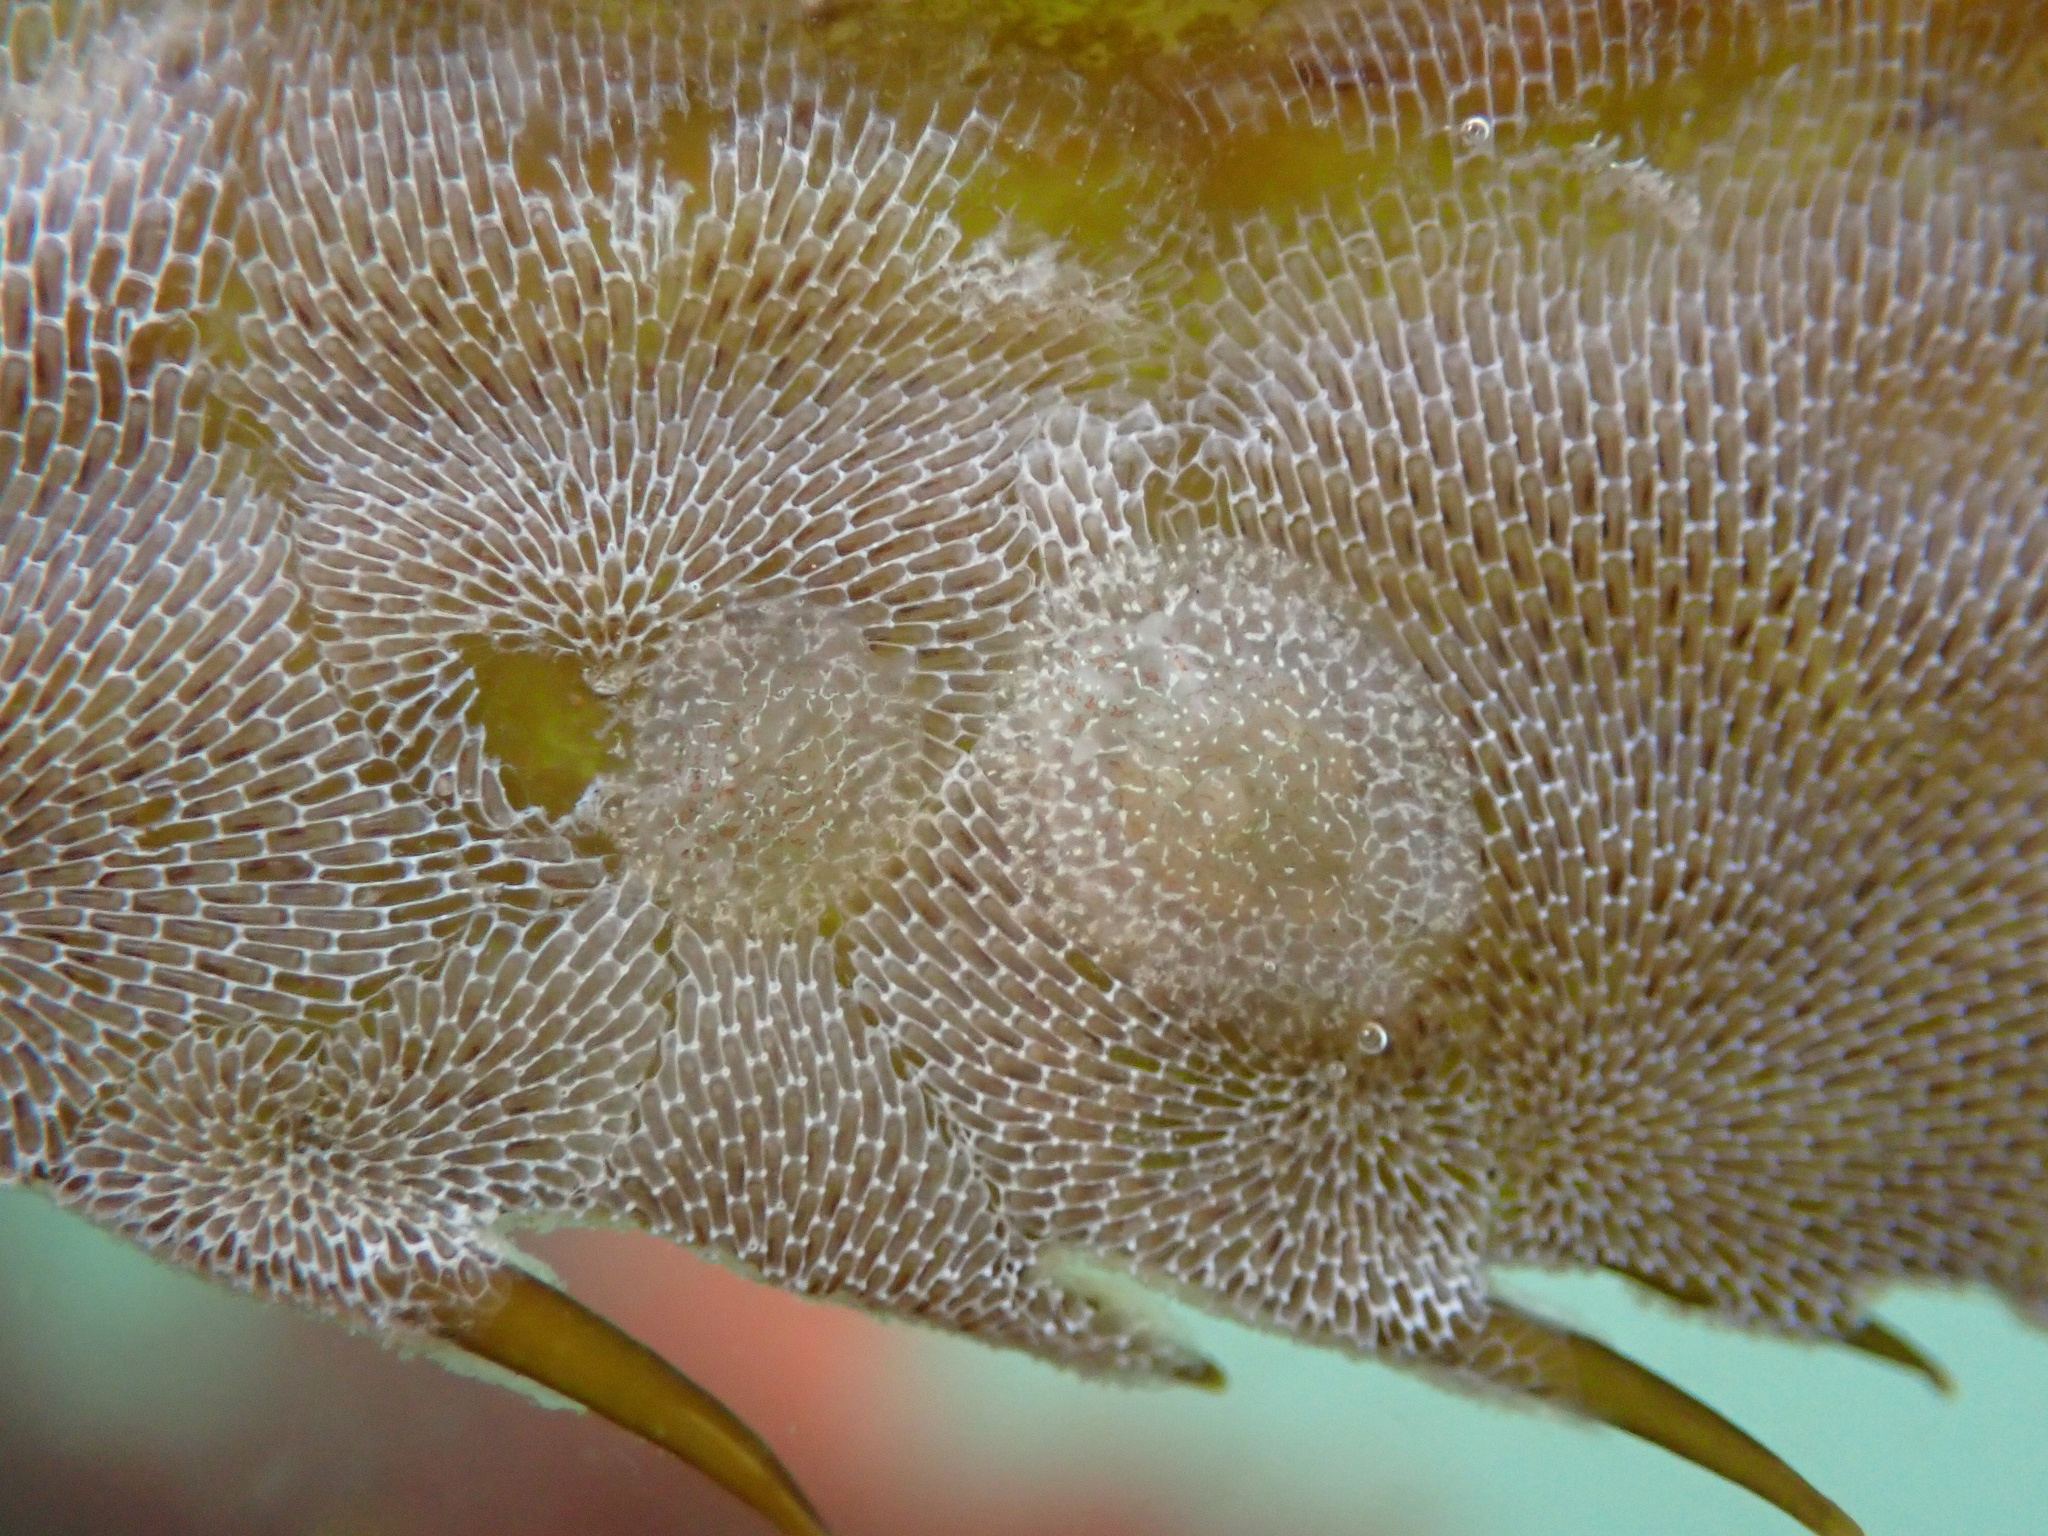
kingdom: Animalia
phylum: Mollusca
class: Gastropoda
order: Nudibranchia
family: Corambidae
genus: Corambe
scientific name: Corambe steinbergae
